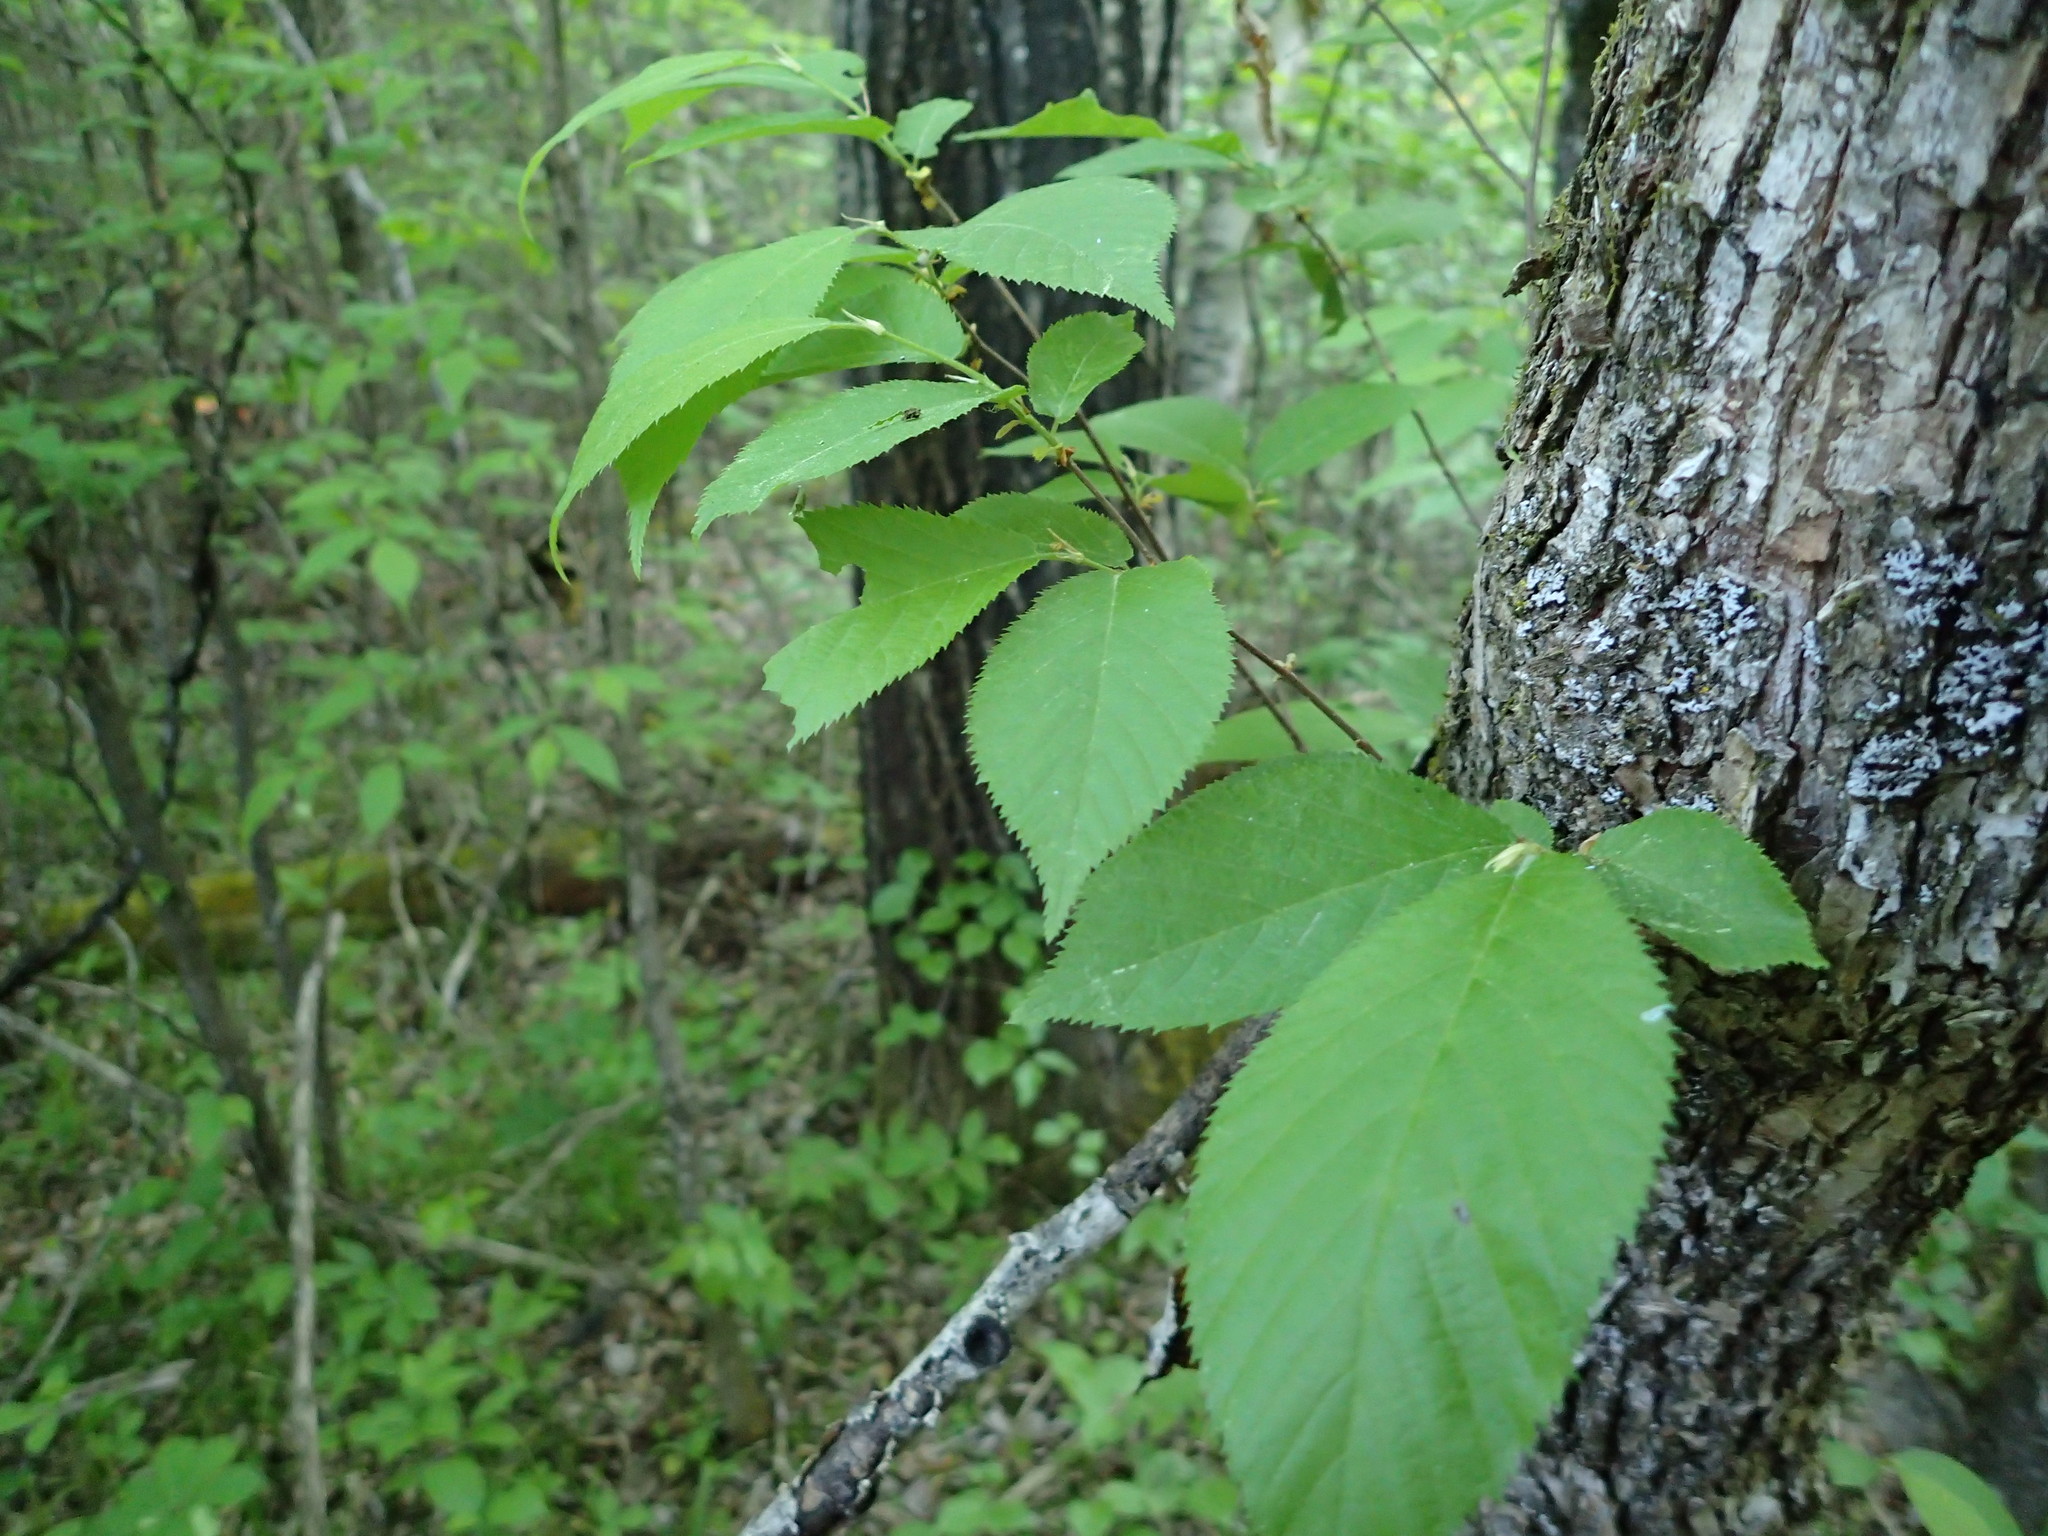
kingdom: Plantae
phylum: Tracheophyta
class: Magnoliopsida
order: Fagales
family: Betulaceae
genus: Ostrya
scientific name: Ostrya virginiana
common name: Ironwood
